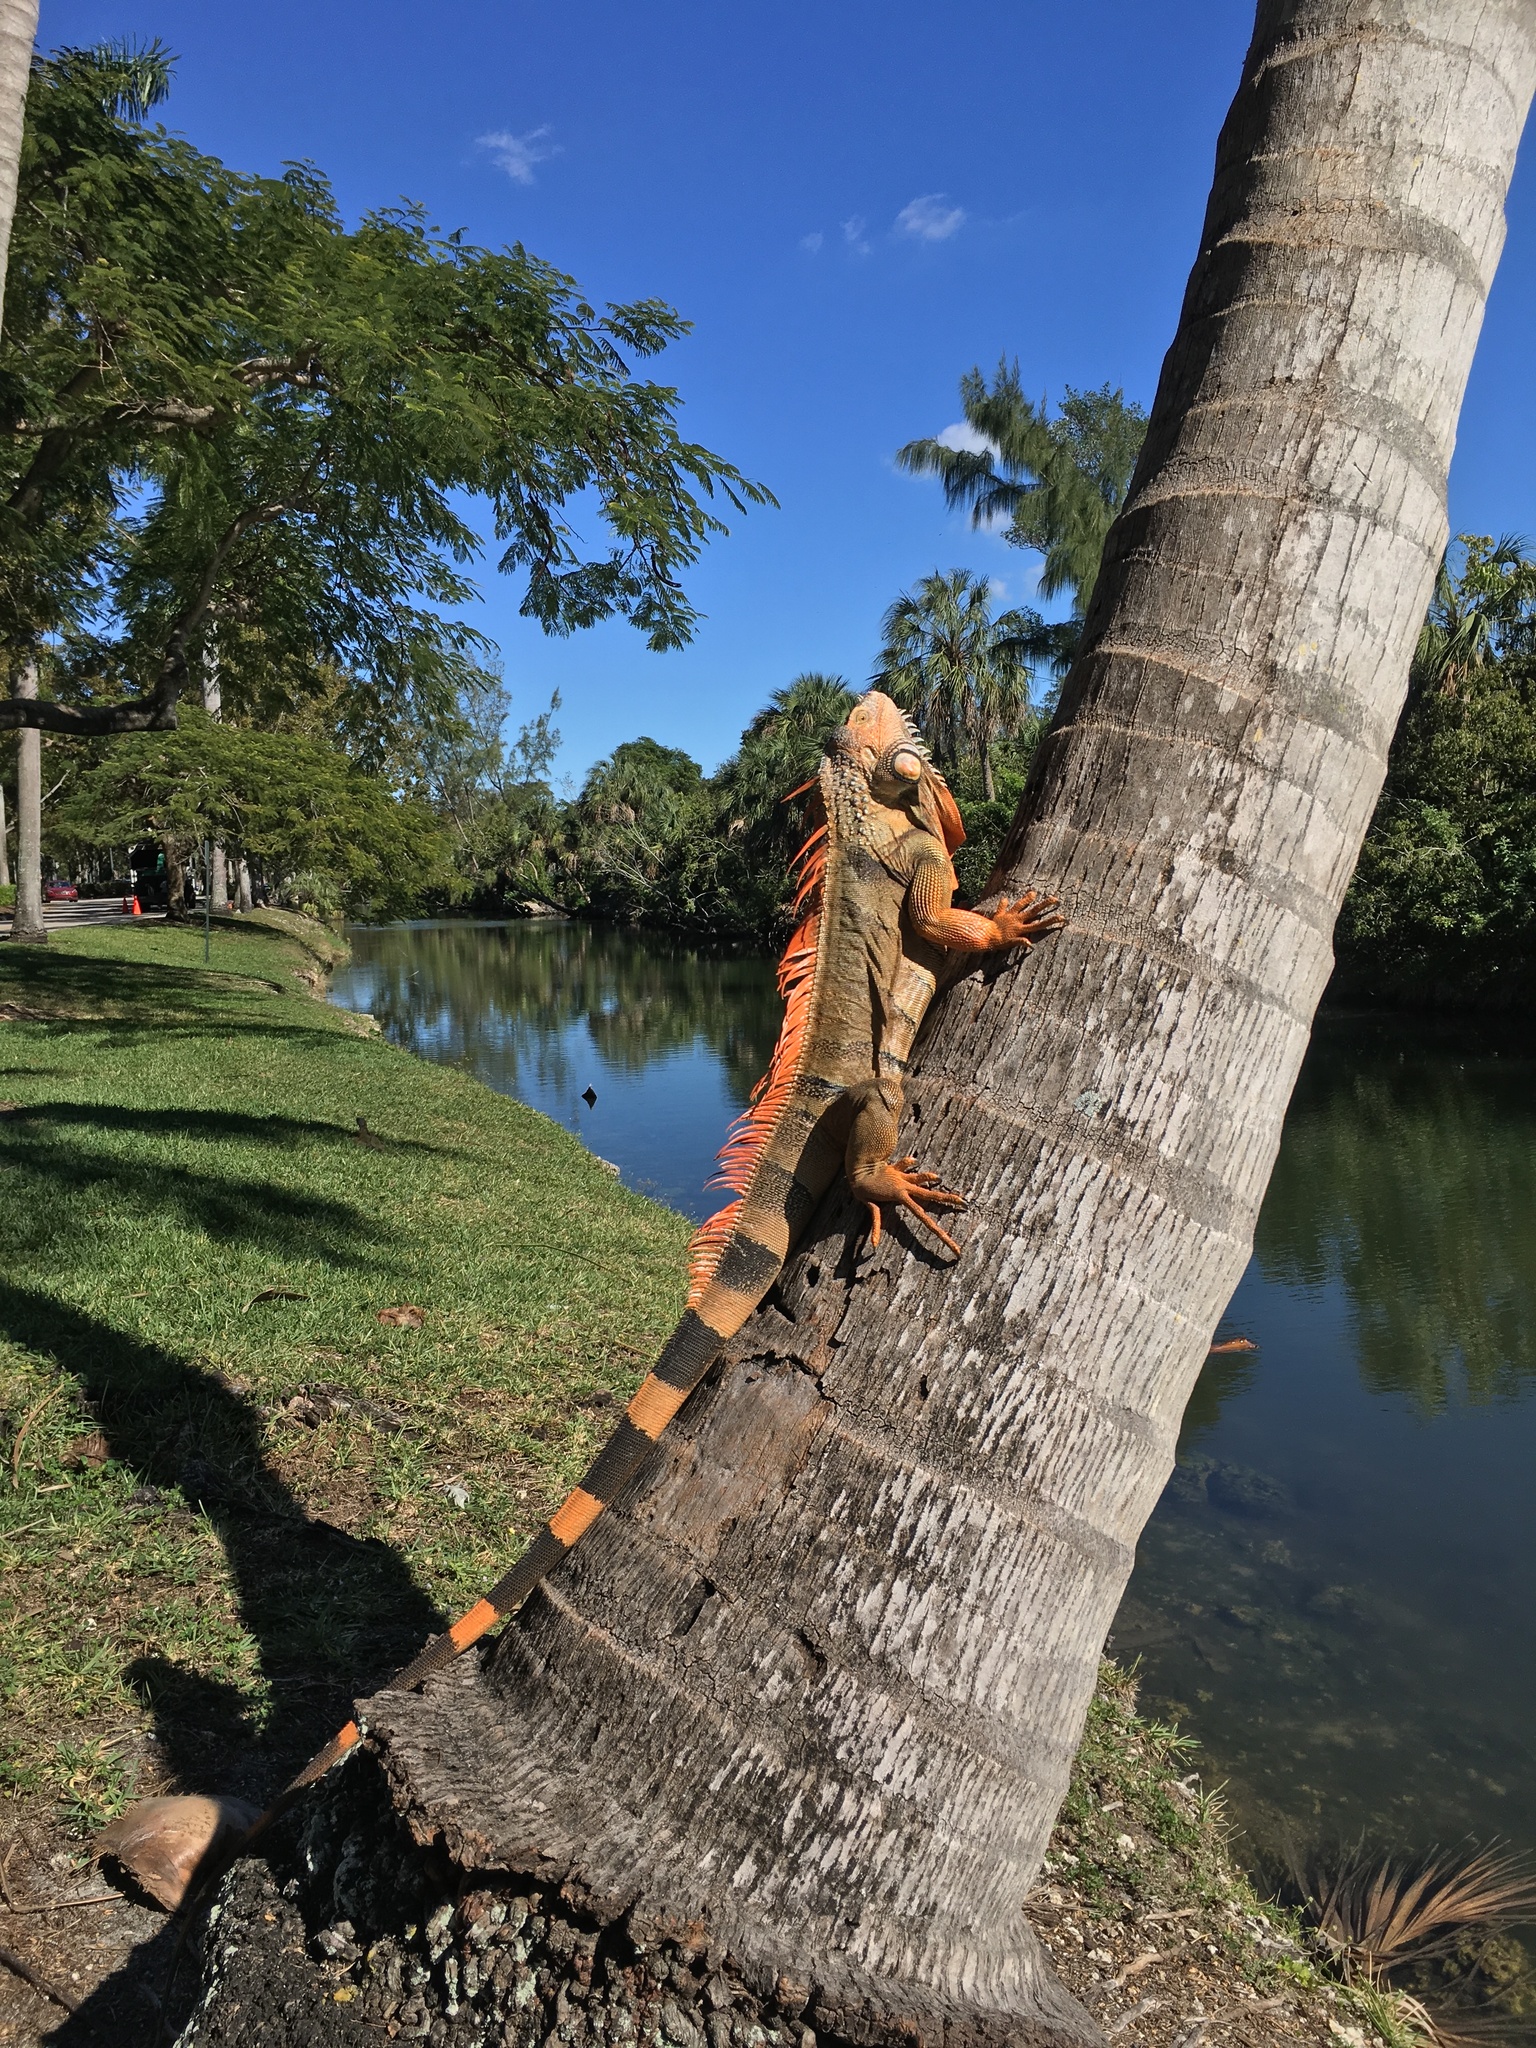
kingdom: Animalia
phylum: Chordata
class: Squamata
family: Iguanidae
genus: Iguana
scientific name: Iguana iguana
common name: Green iguana
